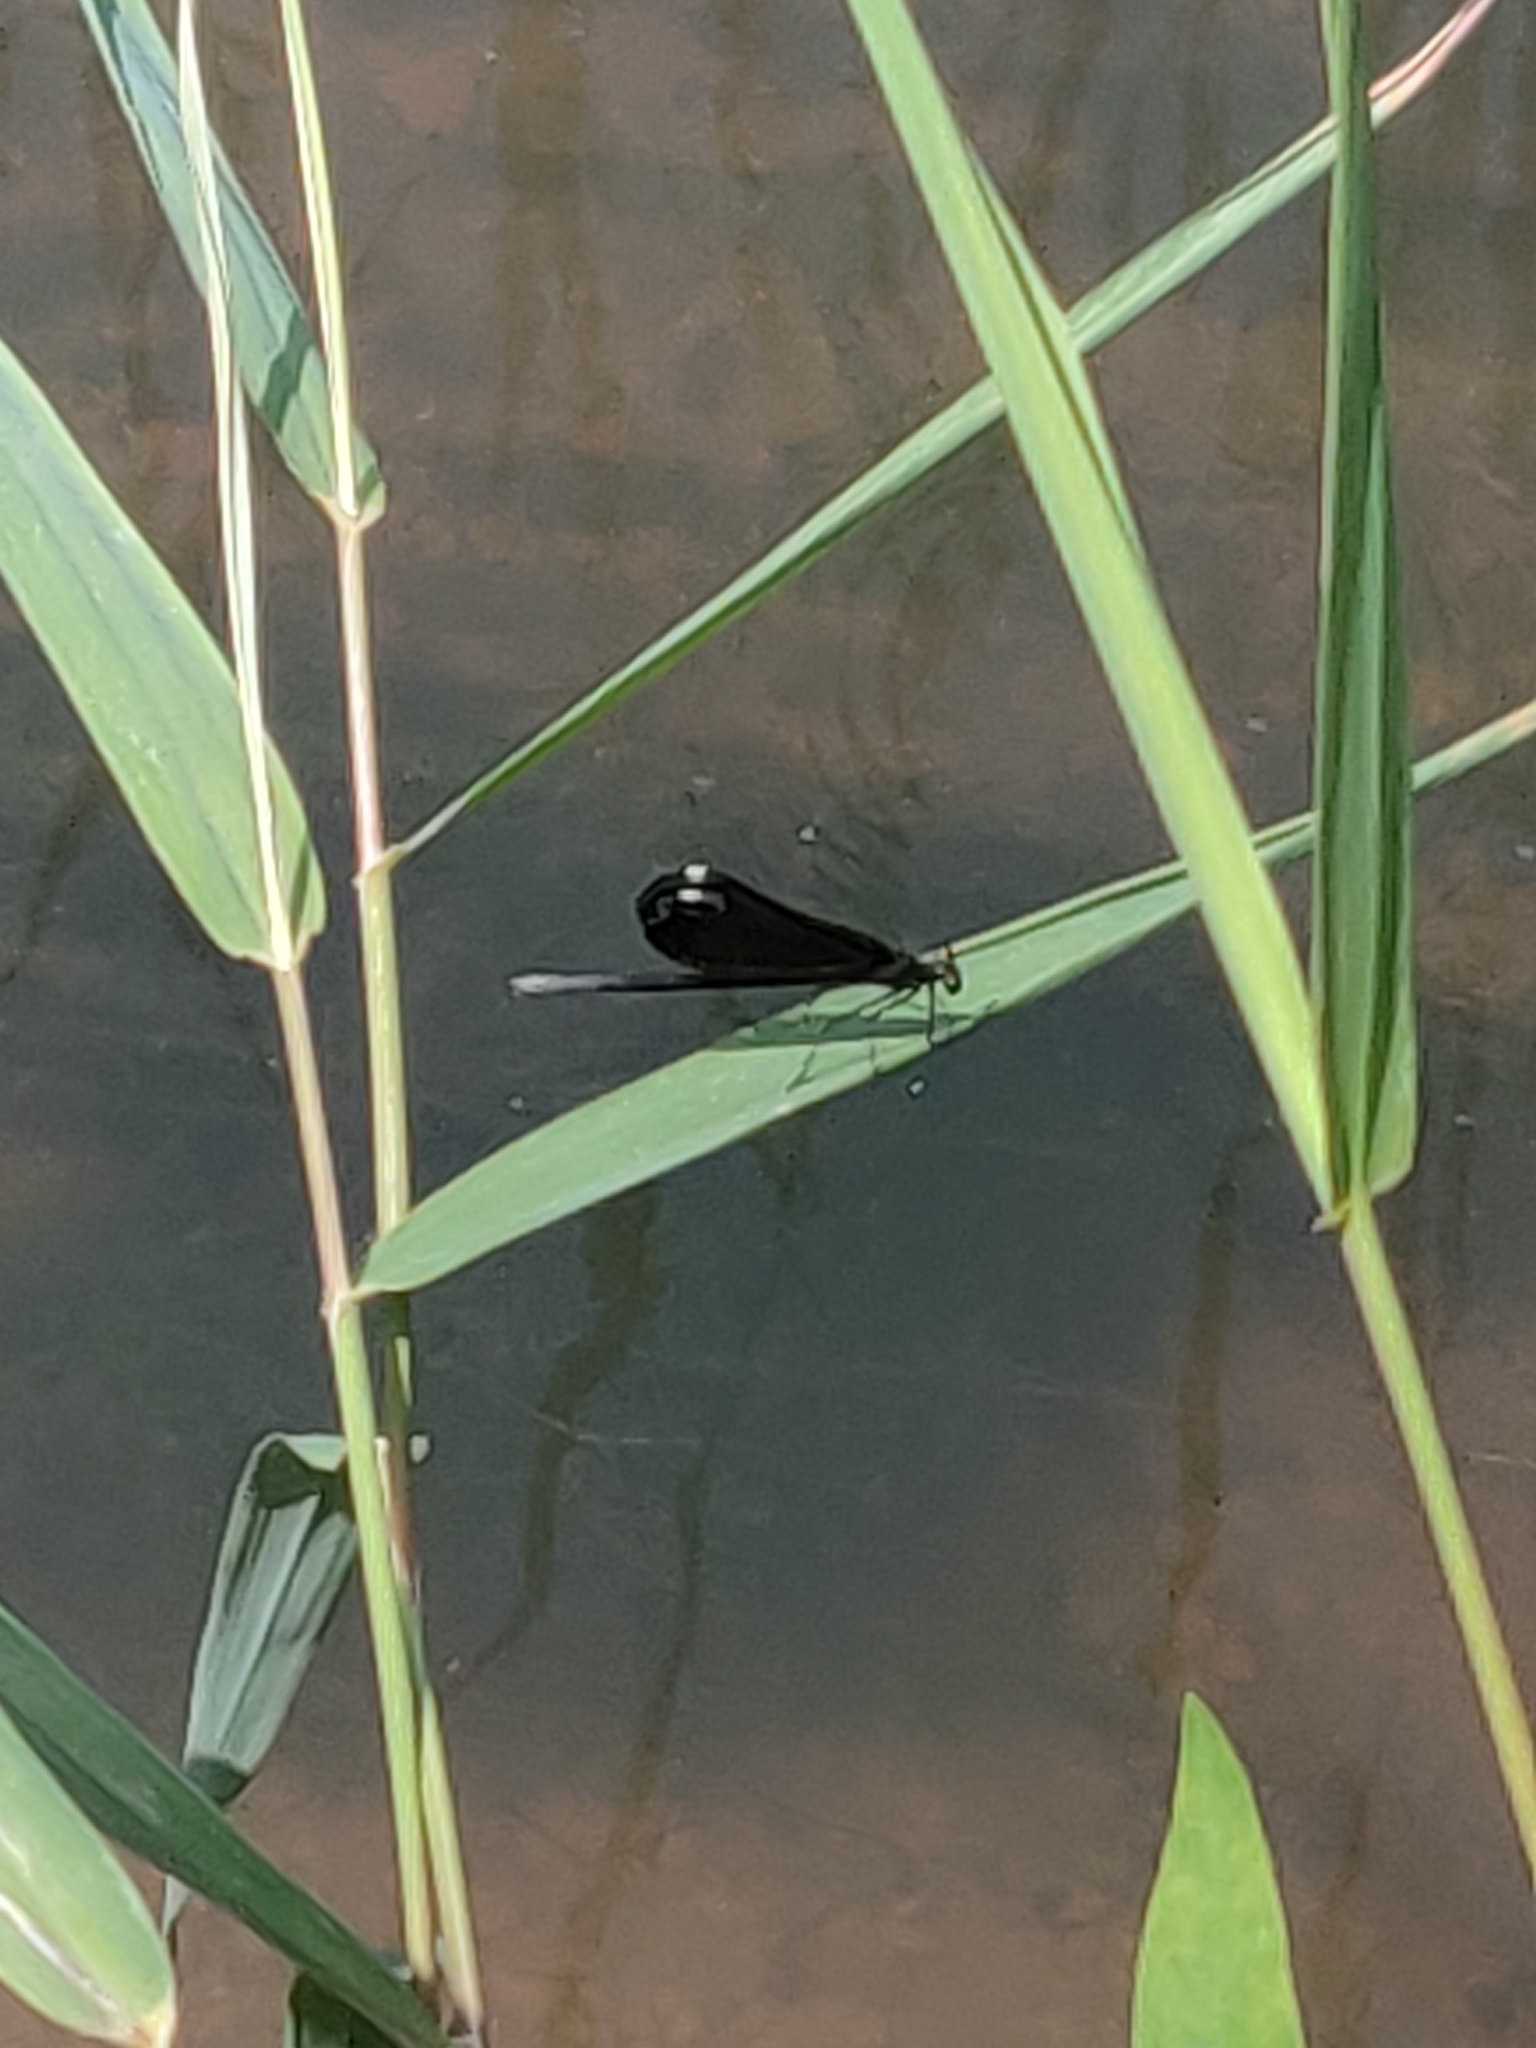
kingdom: Animalia
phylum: Arthropoda
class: Insecta
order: Odonata
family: Calopterygidae
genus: Calopteryx
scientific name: Calopteryx maculata
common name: Ebony jewelwing
